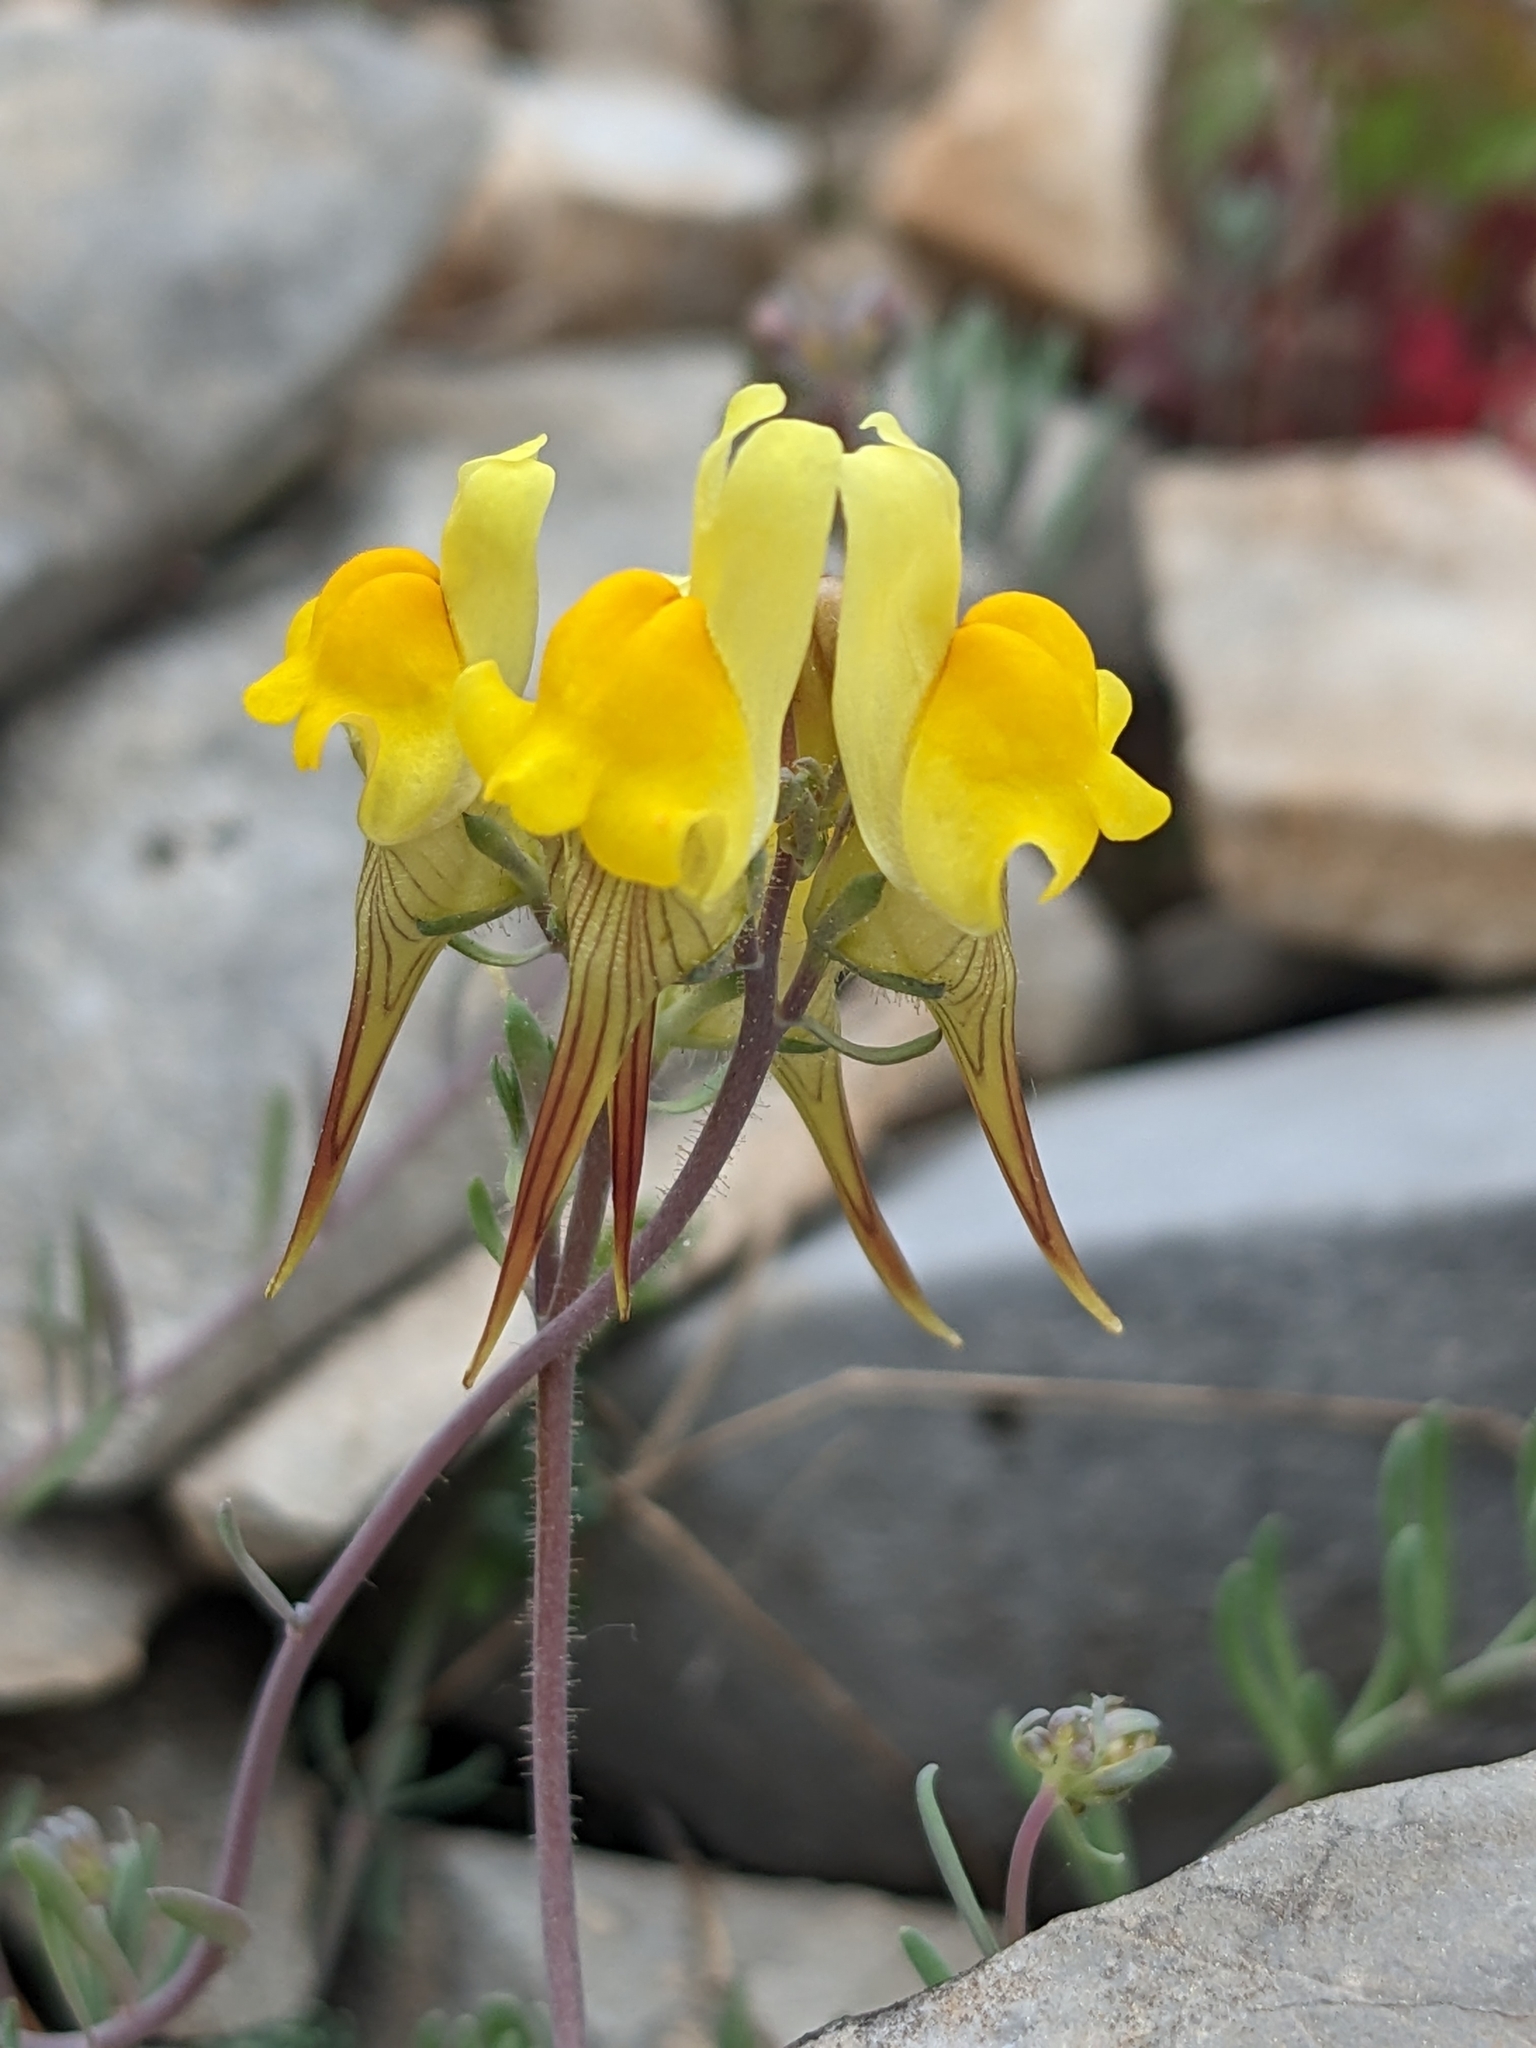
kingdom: Plantae
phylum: Tracheophyta
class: Magnoliopsida
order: Lamiales
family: Plantaginaceae
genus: Linaria
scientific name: Linaria supina
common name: Prostrate toadflax
